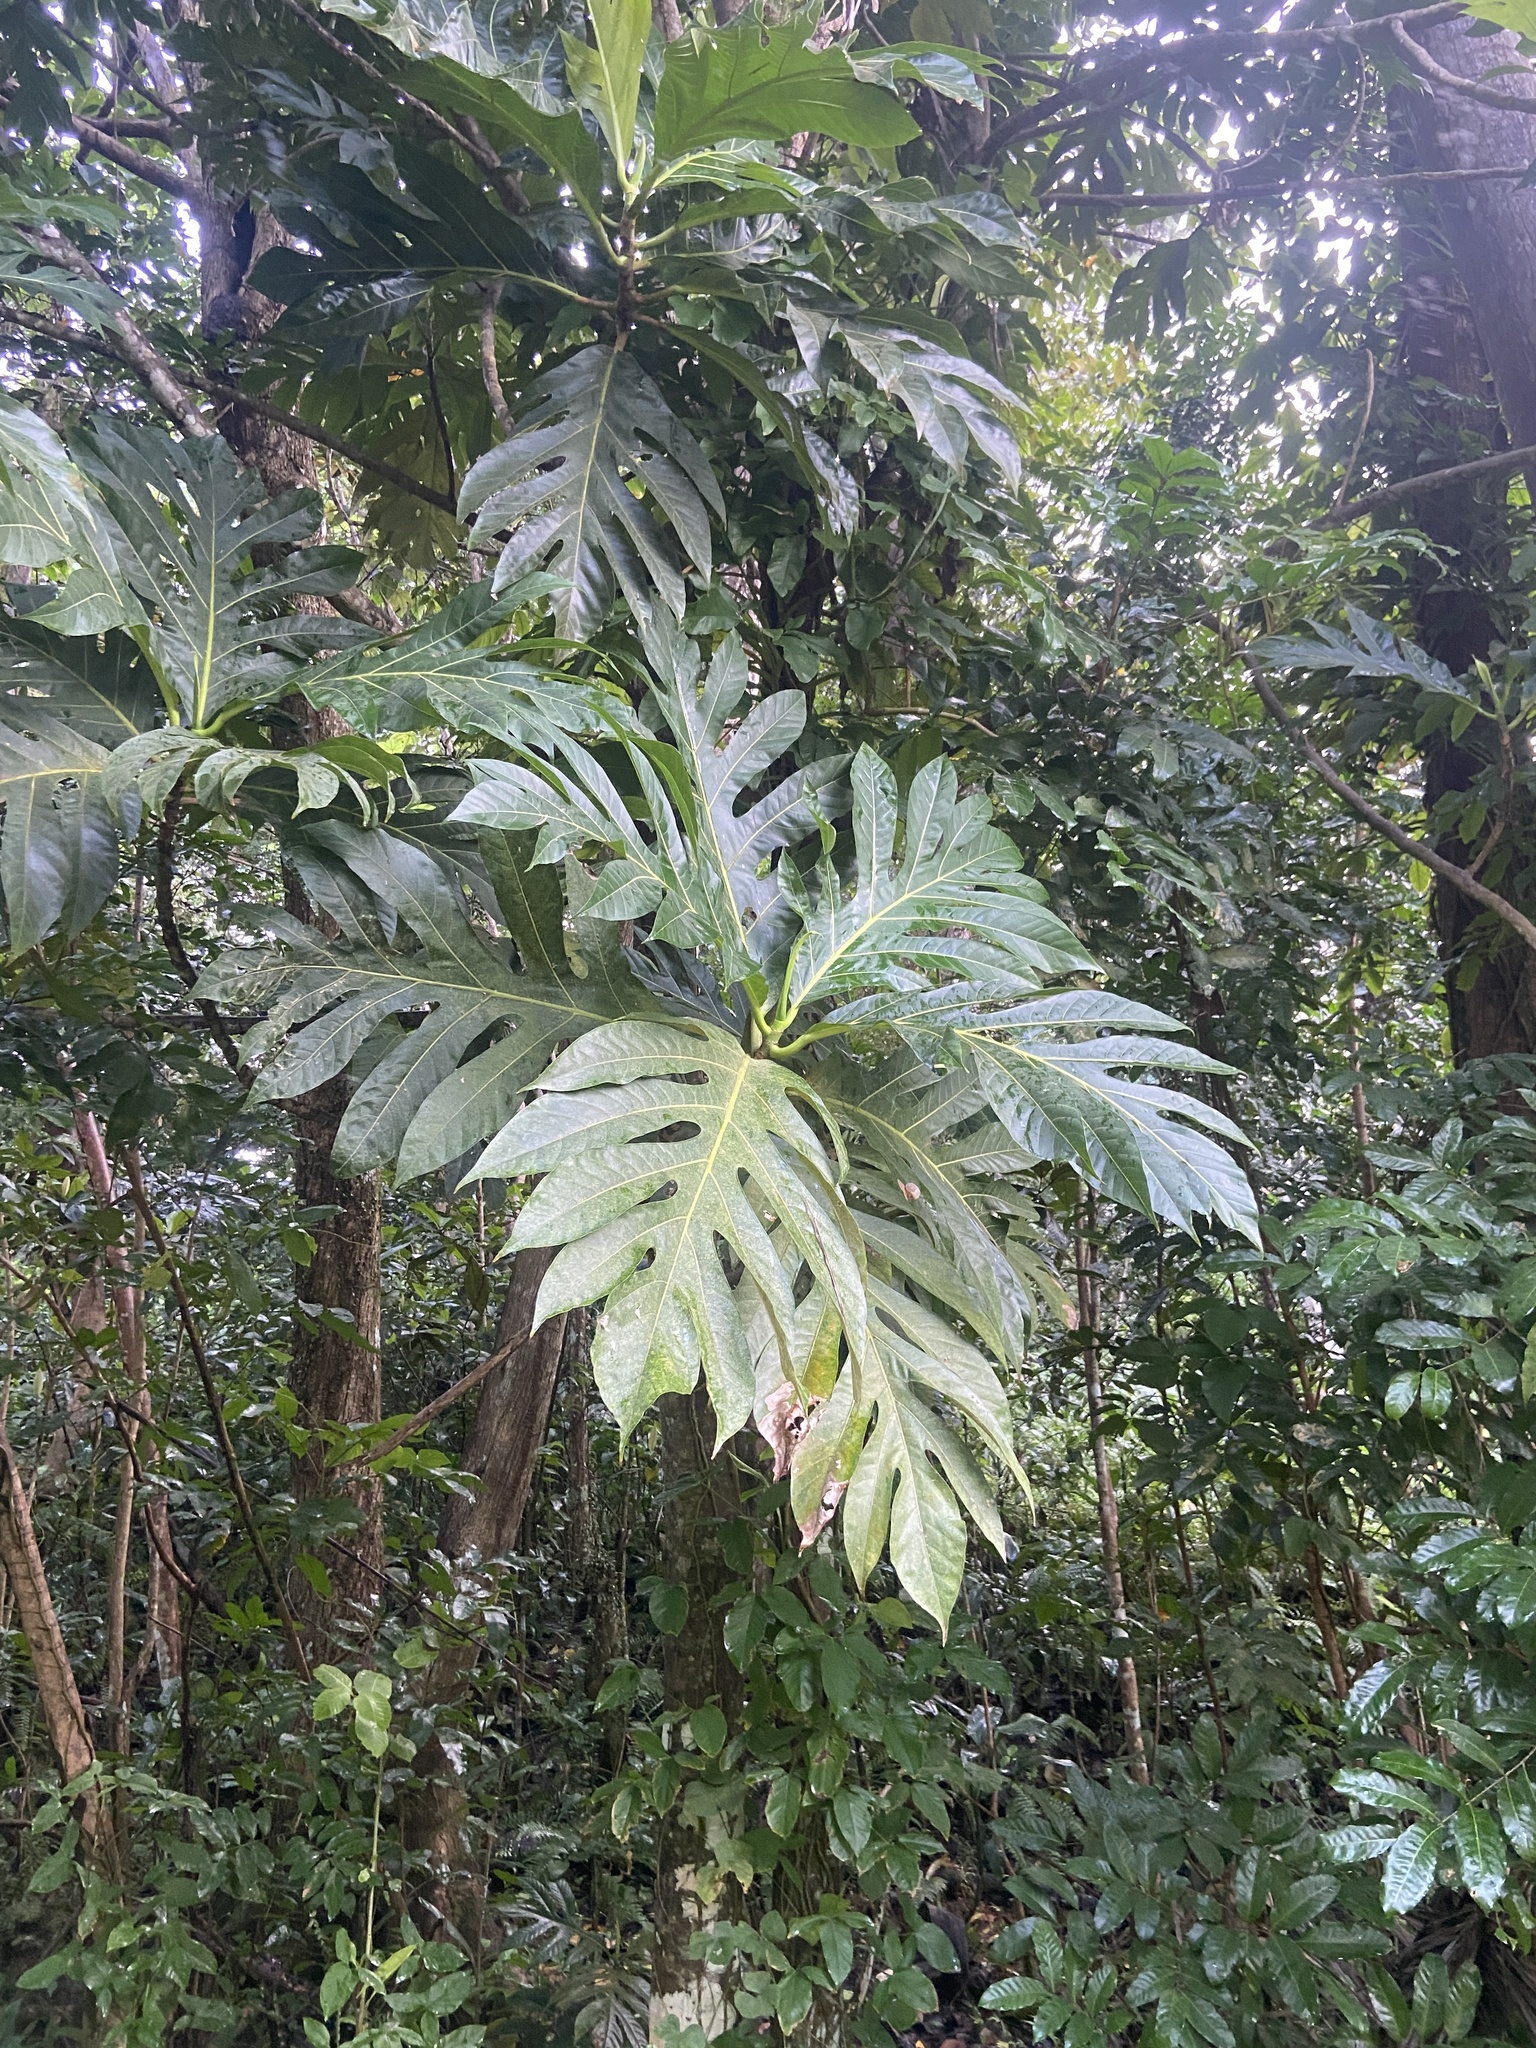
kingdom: Plantae
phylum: Tracheophyta
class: Magnoliopsida
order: Rosales
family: Moraceae
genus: Artocarpus
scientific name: Artocarpus altilis
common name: Breadfruit
